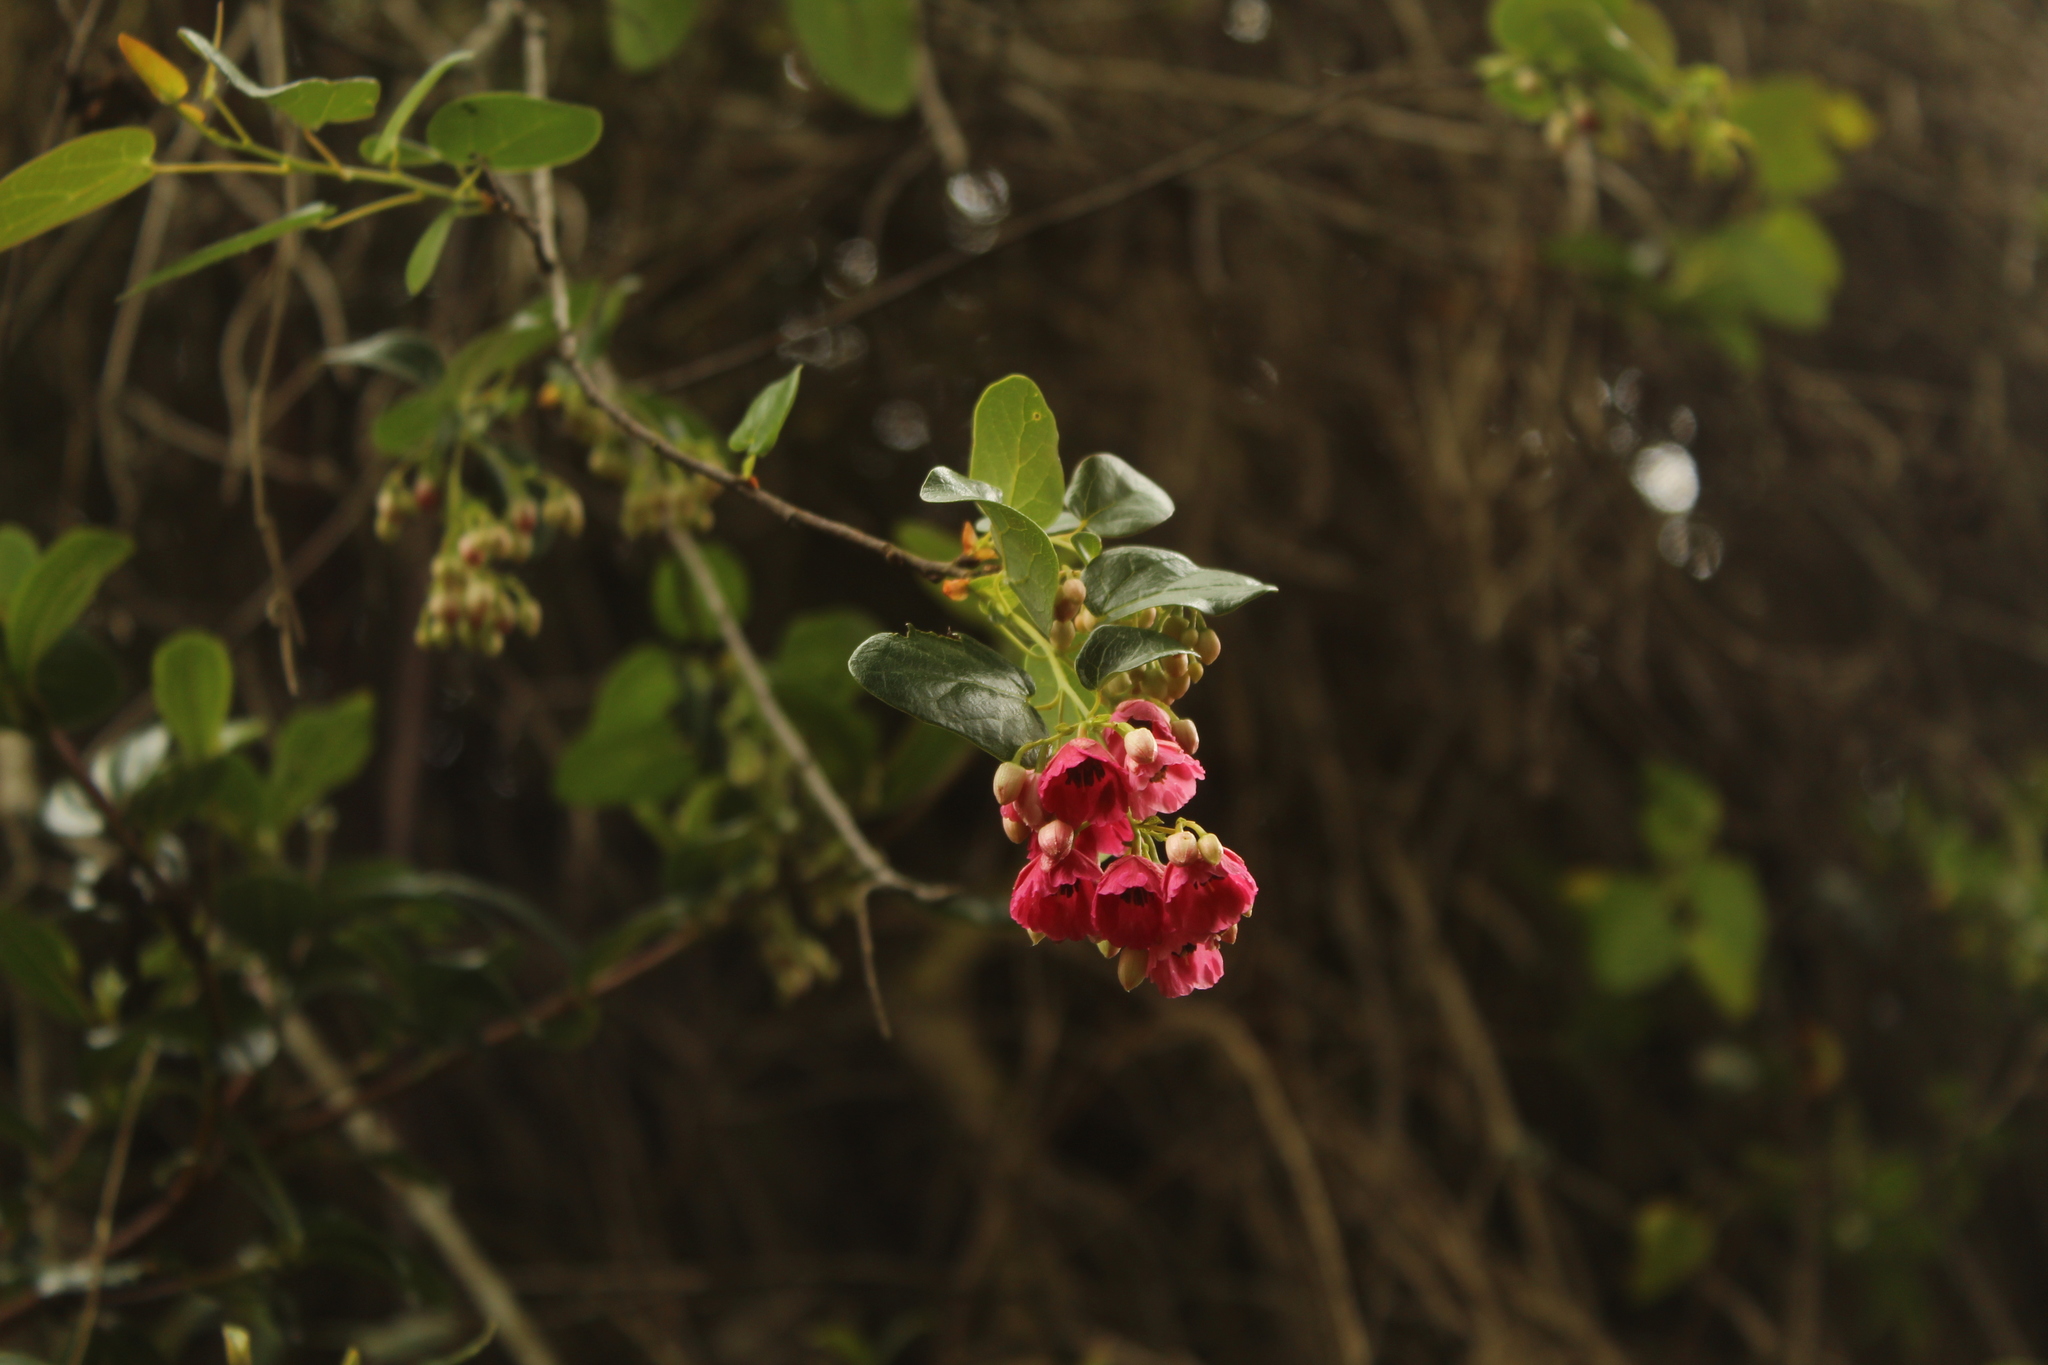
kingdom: Plantae
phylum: Tracheophyta
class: Magnoliopsida
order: Oxalidales
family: Elaeocarpaceae
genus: Vallea
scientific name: Vallea stipularis
